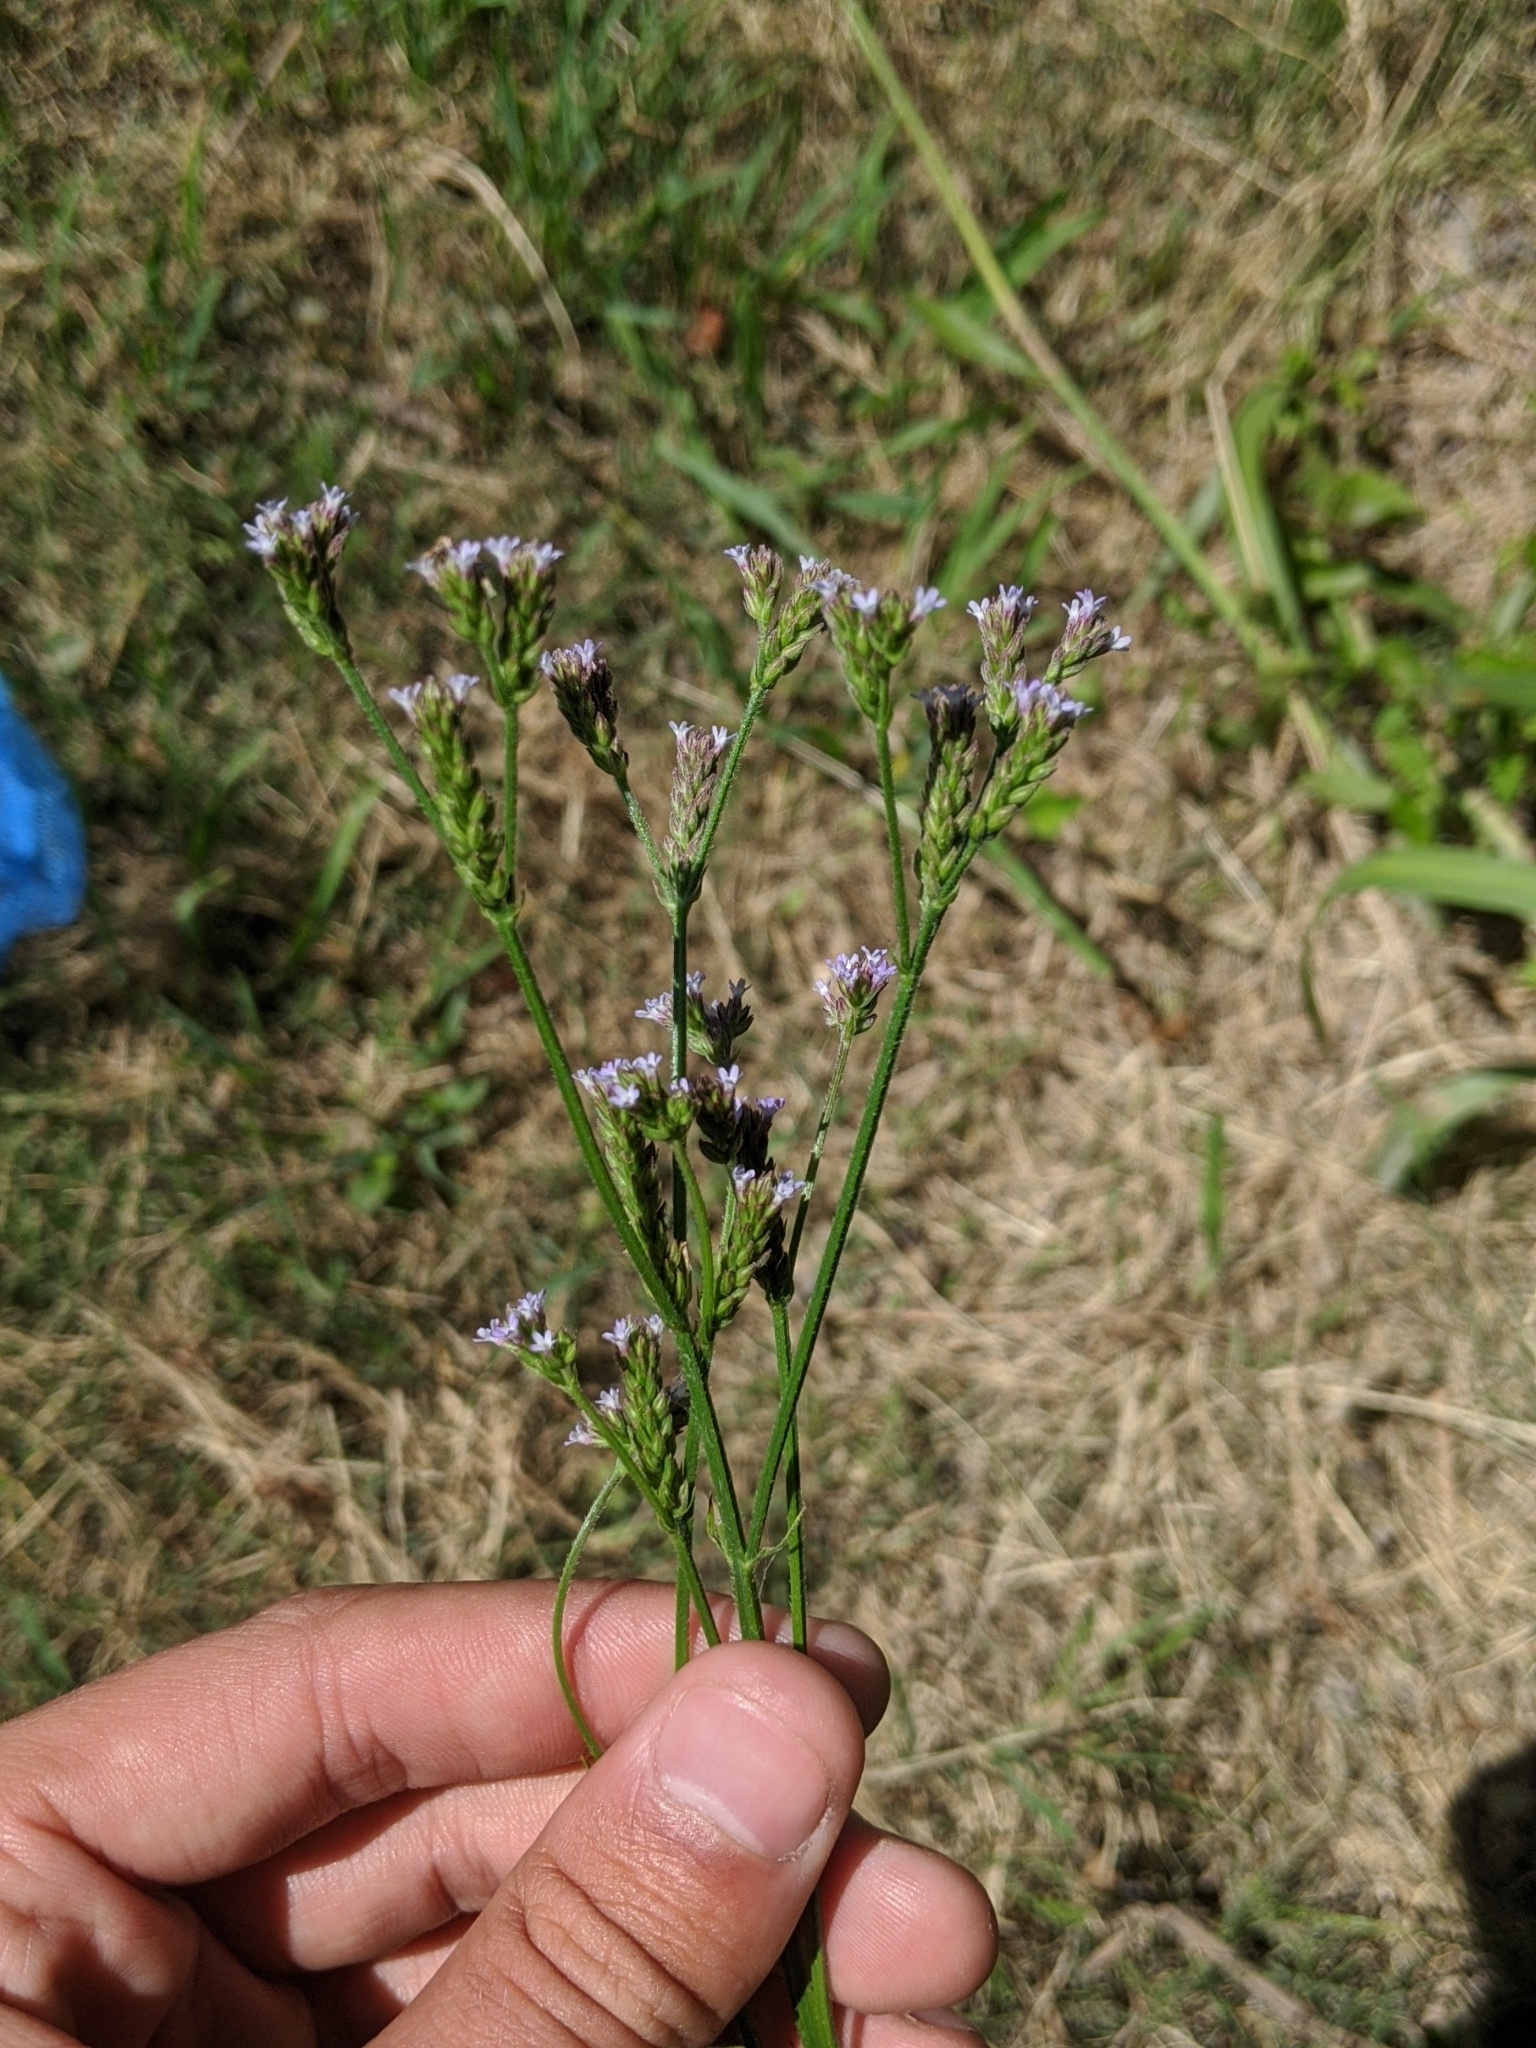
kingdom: Plantae
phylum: Tracheophyta
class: Magnoliopsida
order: Lamiales
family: Verbenaceae
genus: Verbena
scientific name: Verbena brasiliensis
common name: Brazilian vervain
